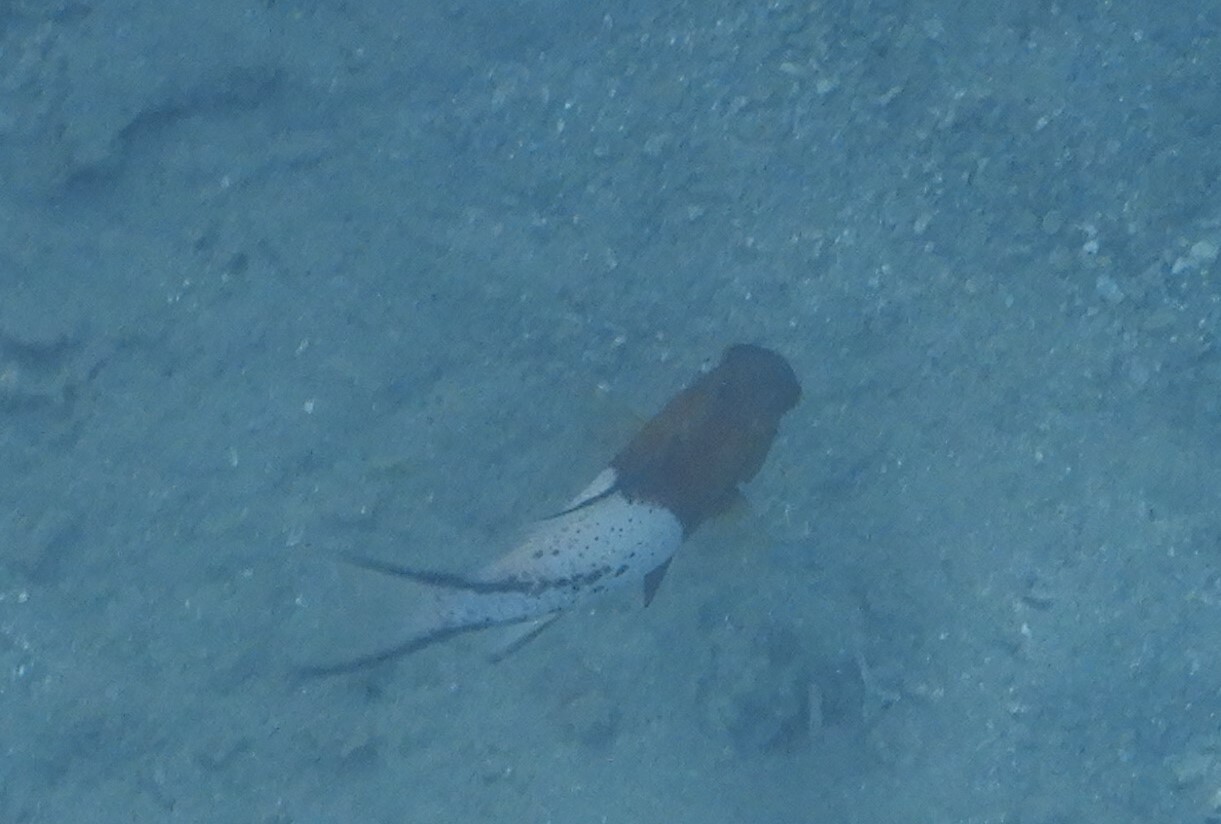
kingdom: Animalia
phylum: Chordata
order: Perciformes
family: Labridae
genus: Bodianus
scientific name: Bodianus anthioides
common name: Lyretail hogfish
